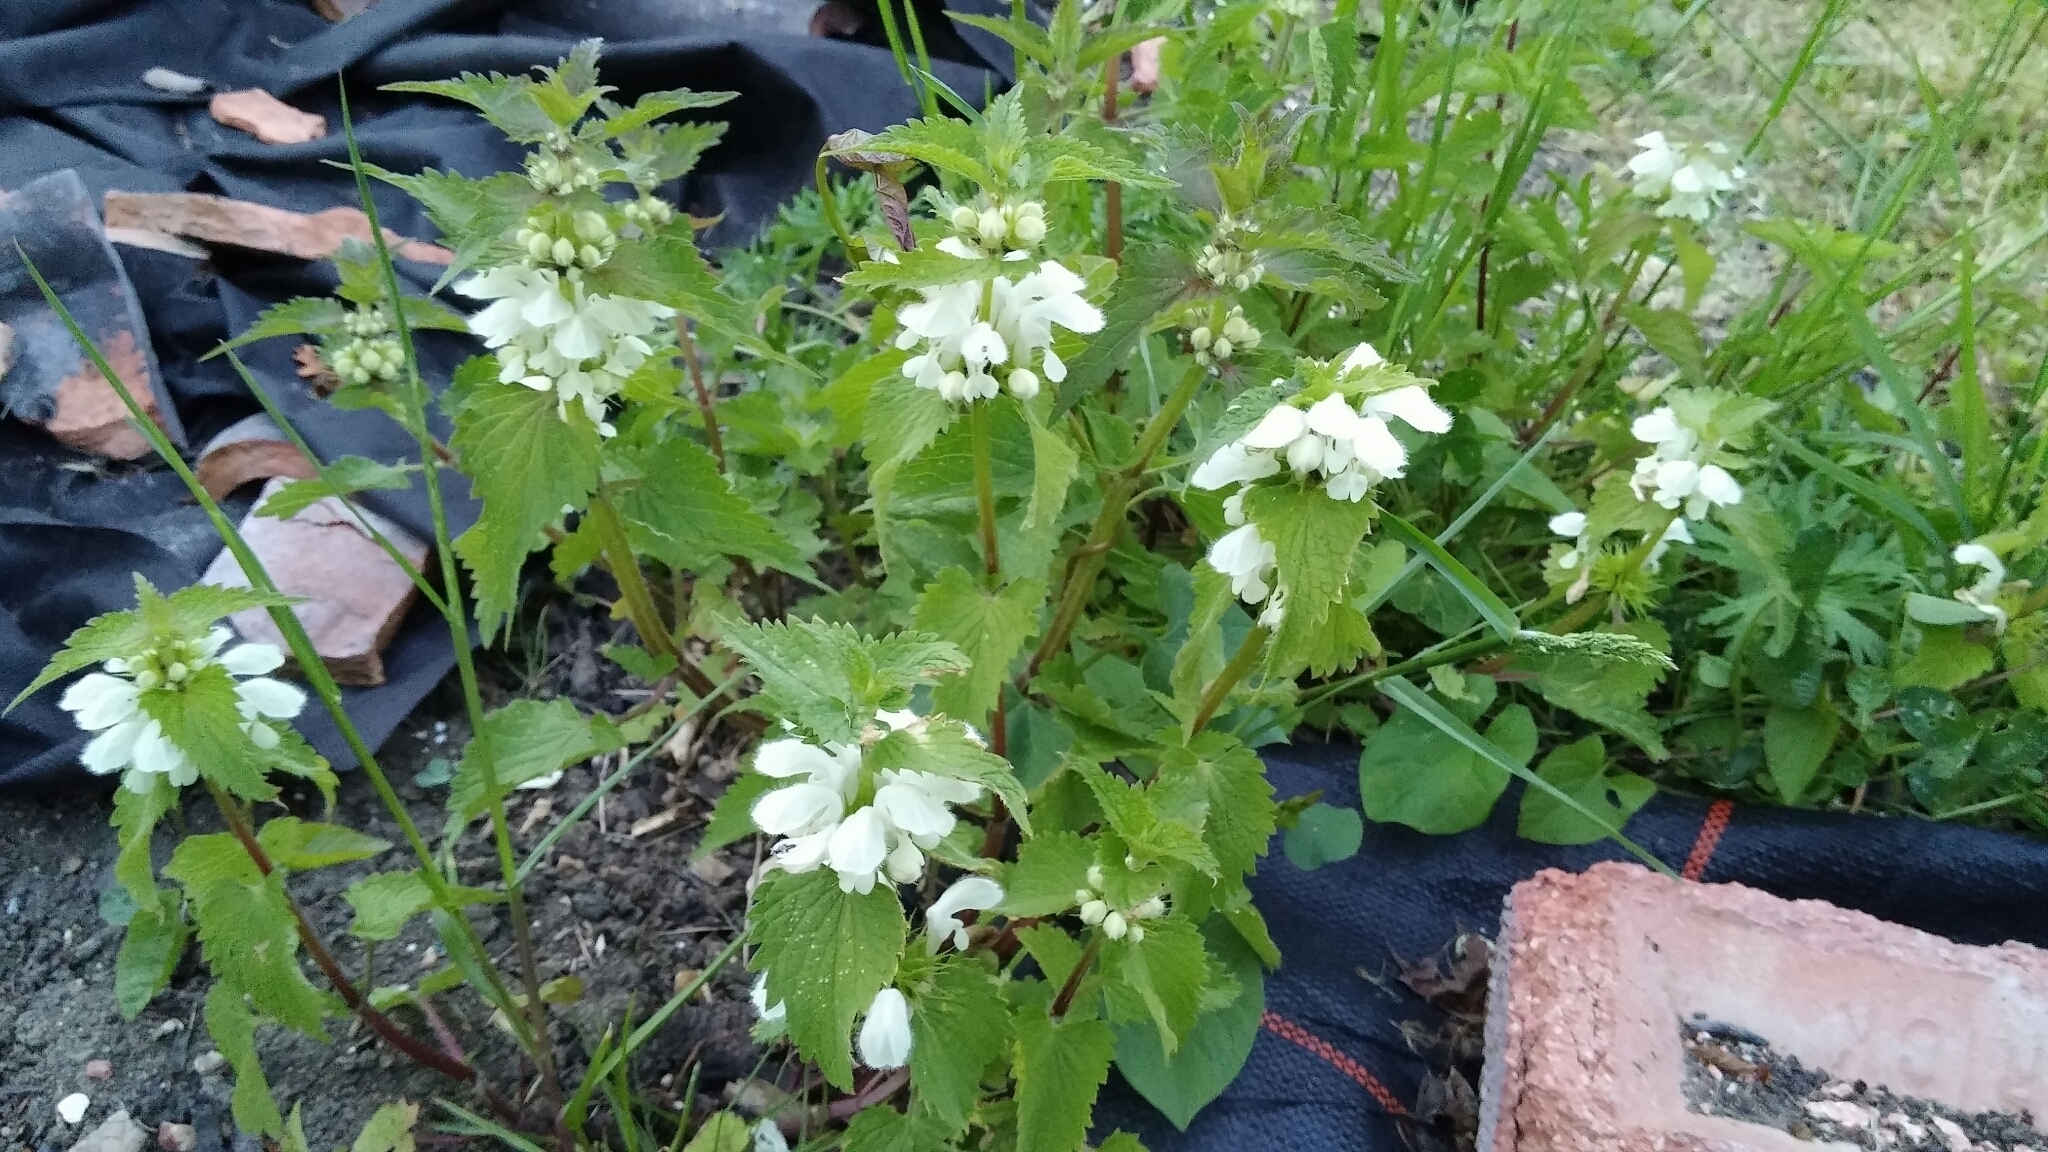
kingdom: Plantae
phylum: Tracheophyta
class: Magnoliopsida
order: Lamiales
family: Lamiaceae
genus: Lamium
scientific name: Lamium album
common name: White dead-nettle
